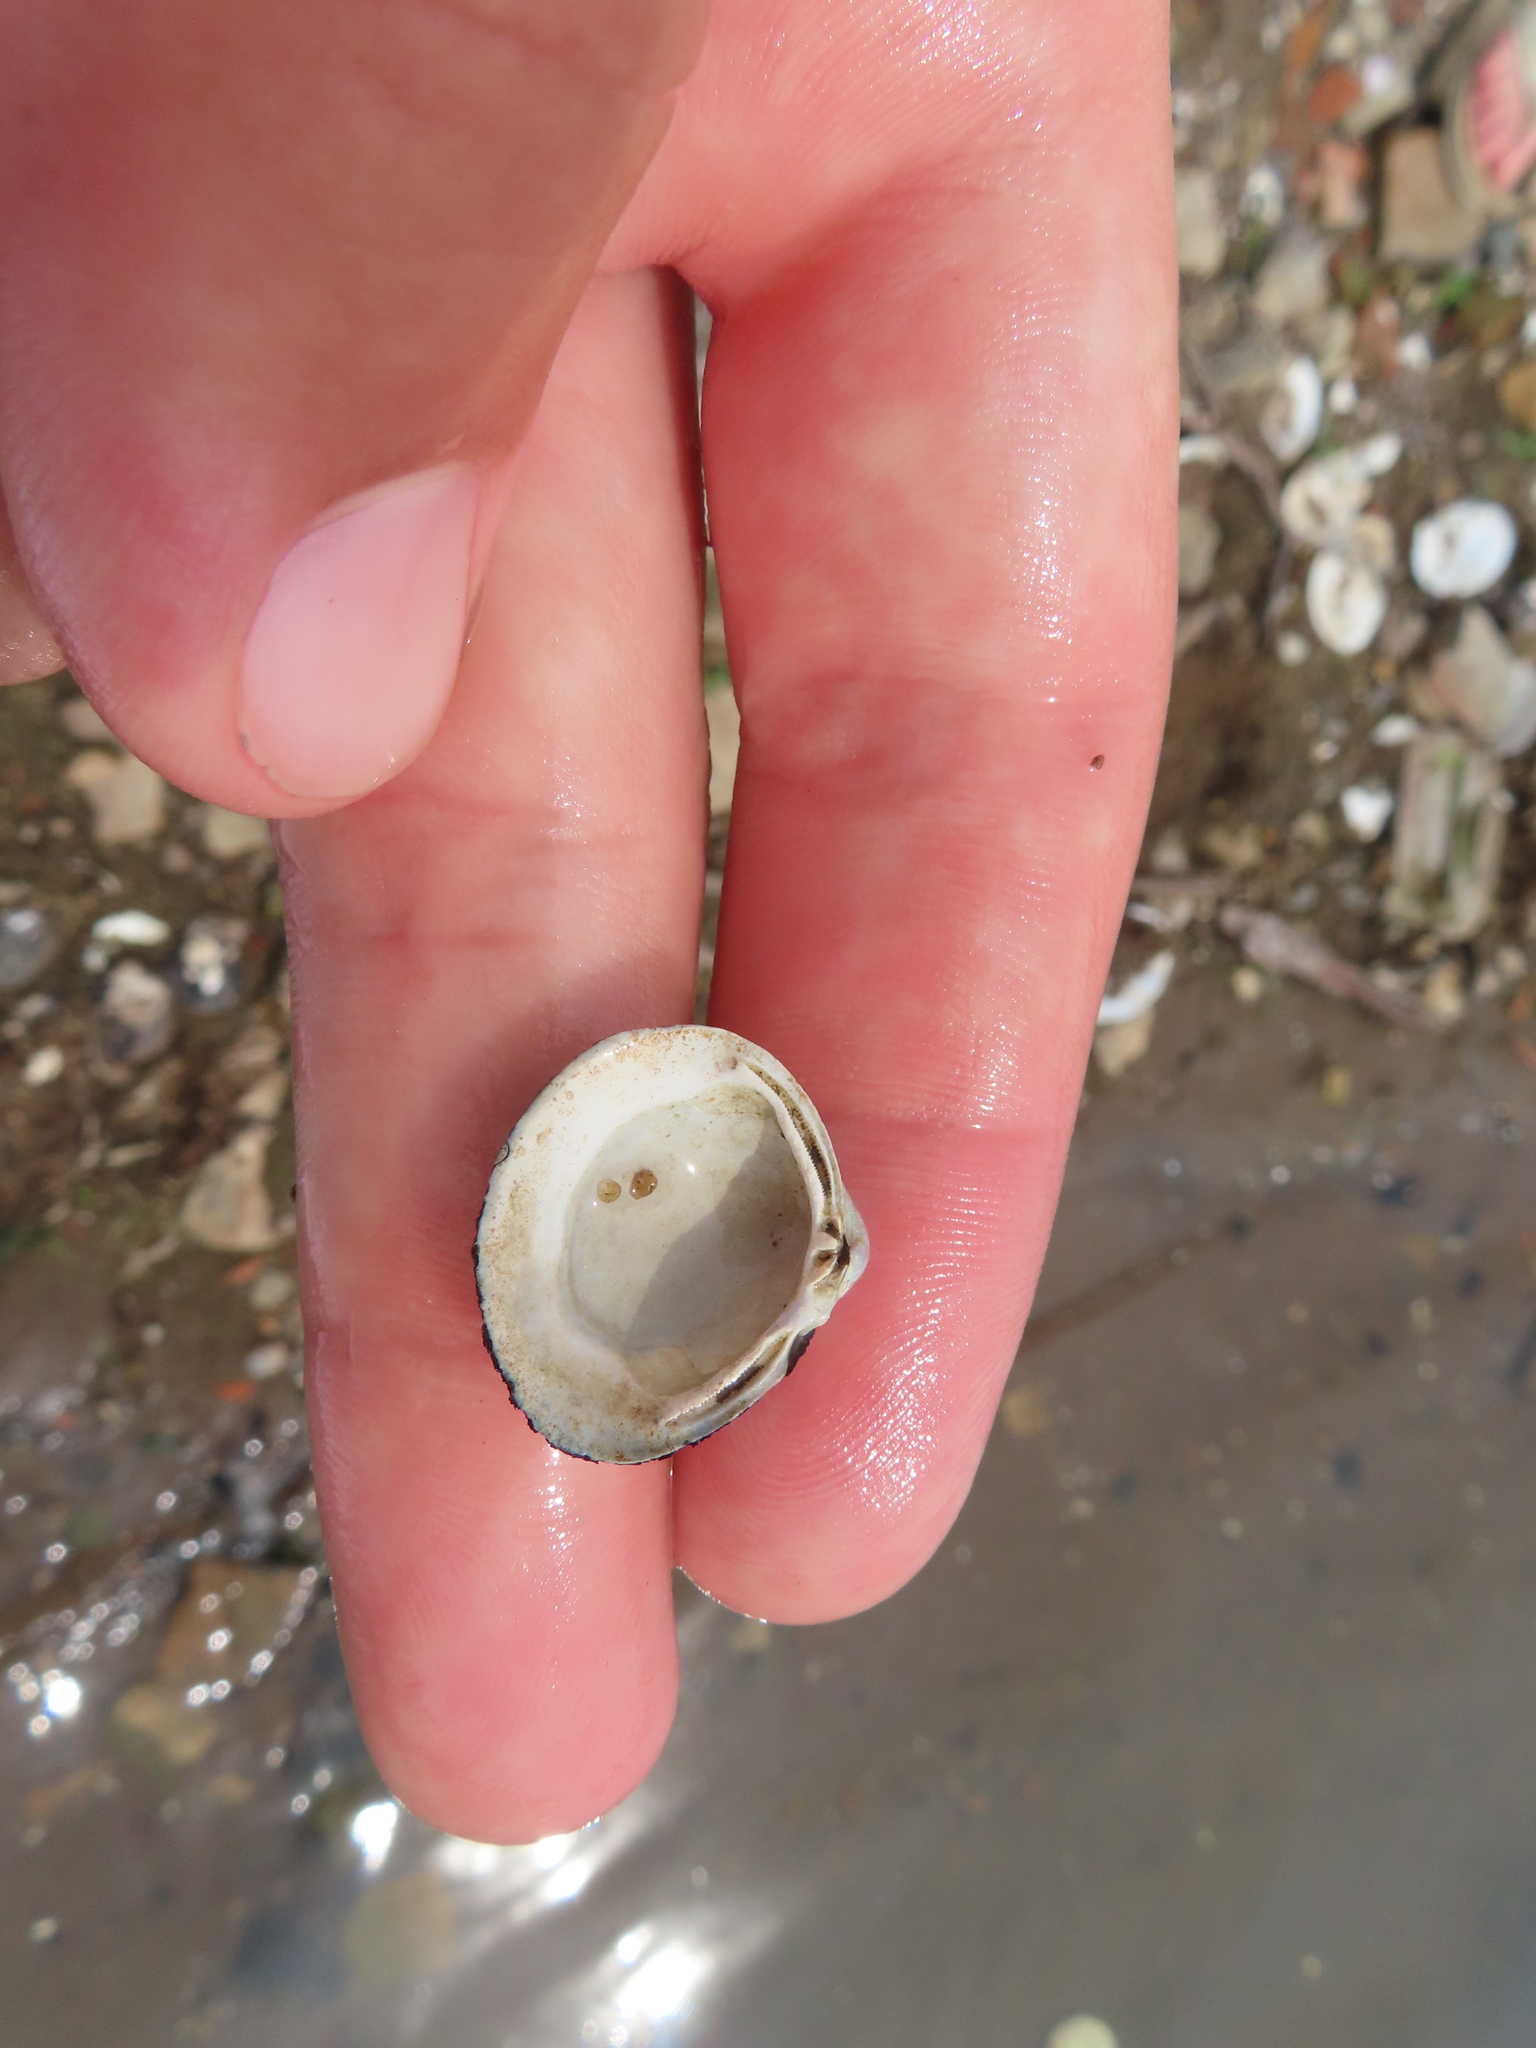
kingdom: Animalia
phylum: Mollusca
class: Bivalvia
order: Venerida
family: Cyrenidae
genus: Corbicula
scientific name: Corbicula fluminea
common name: Asian clam
